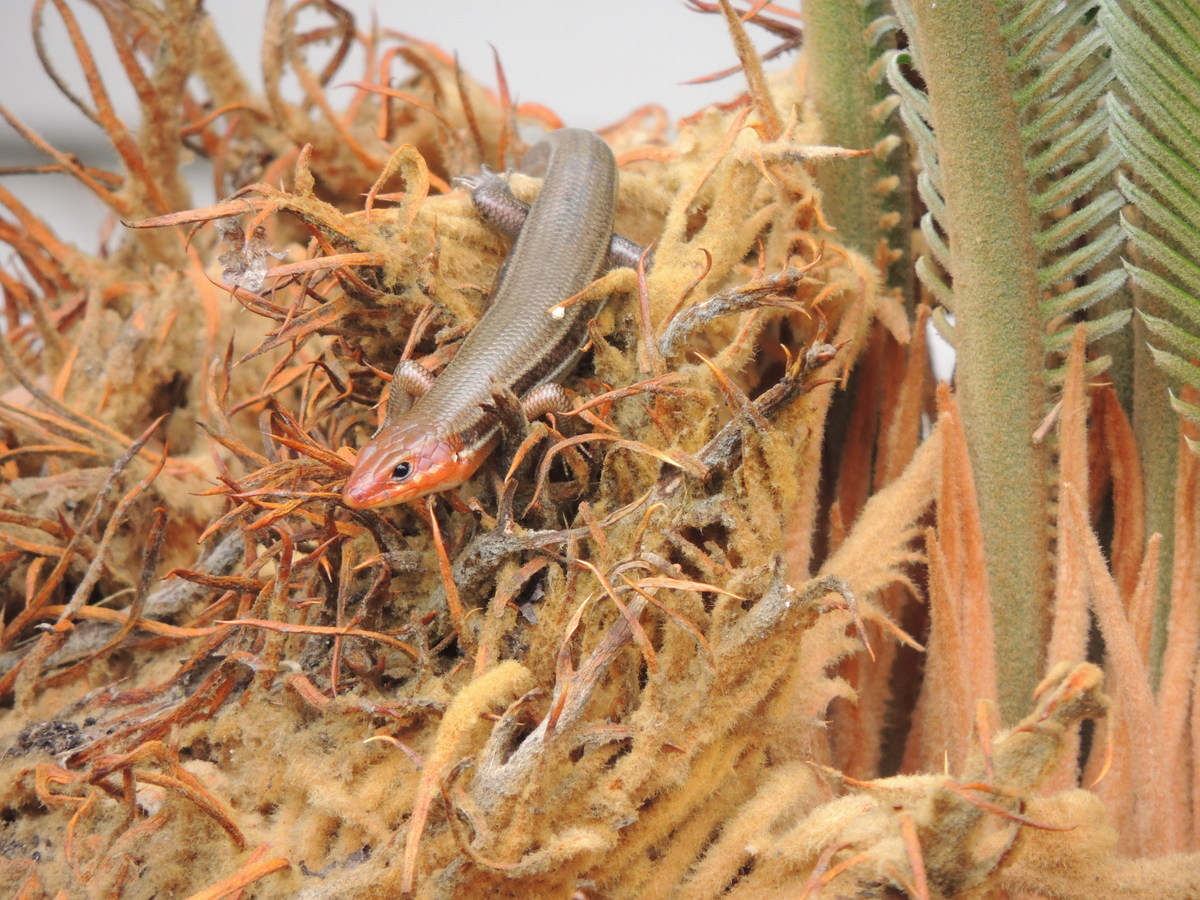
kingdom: Animalia
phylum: Chordata
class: Squamata
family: Scincidae
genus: Plestiodon
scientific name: Plestiodon laticeps
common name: Broadhead skink
